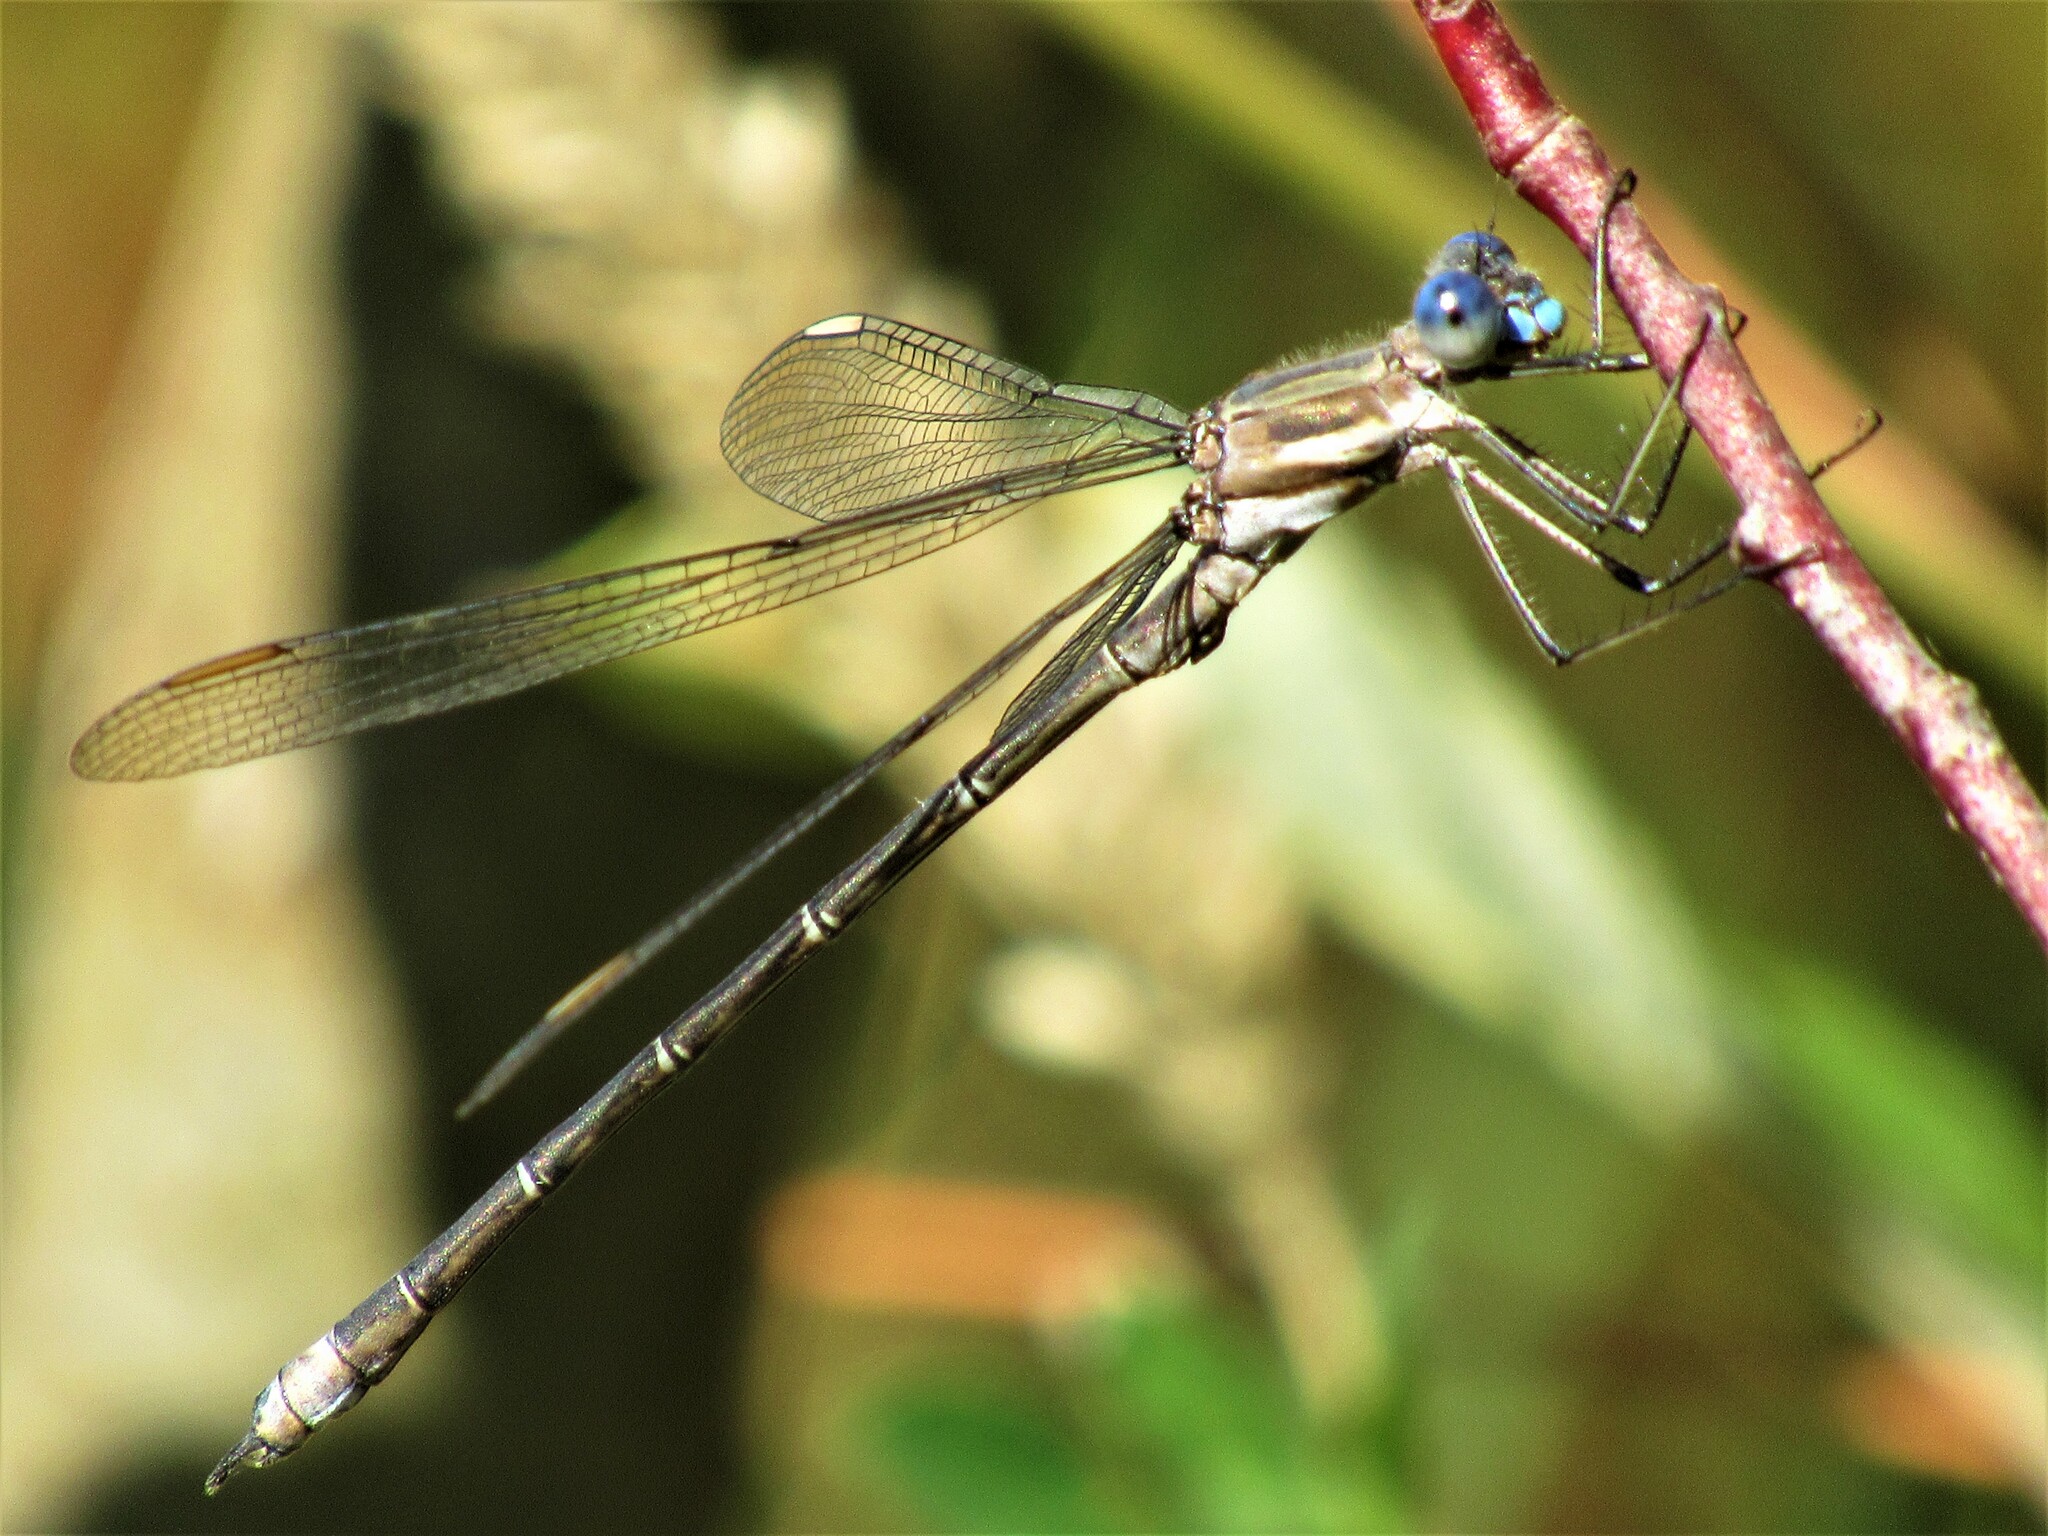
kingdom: Animalia
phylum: Arthropoda
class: Insecta
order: Odonata
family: Lestidae
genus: Archilestes
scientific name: Archilestes californicus
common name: California spreadwing
